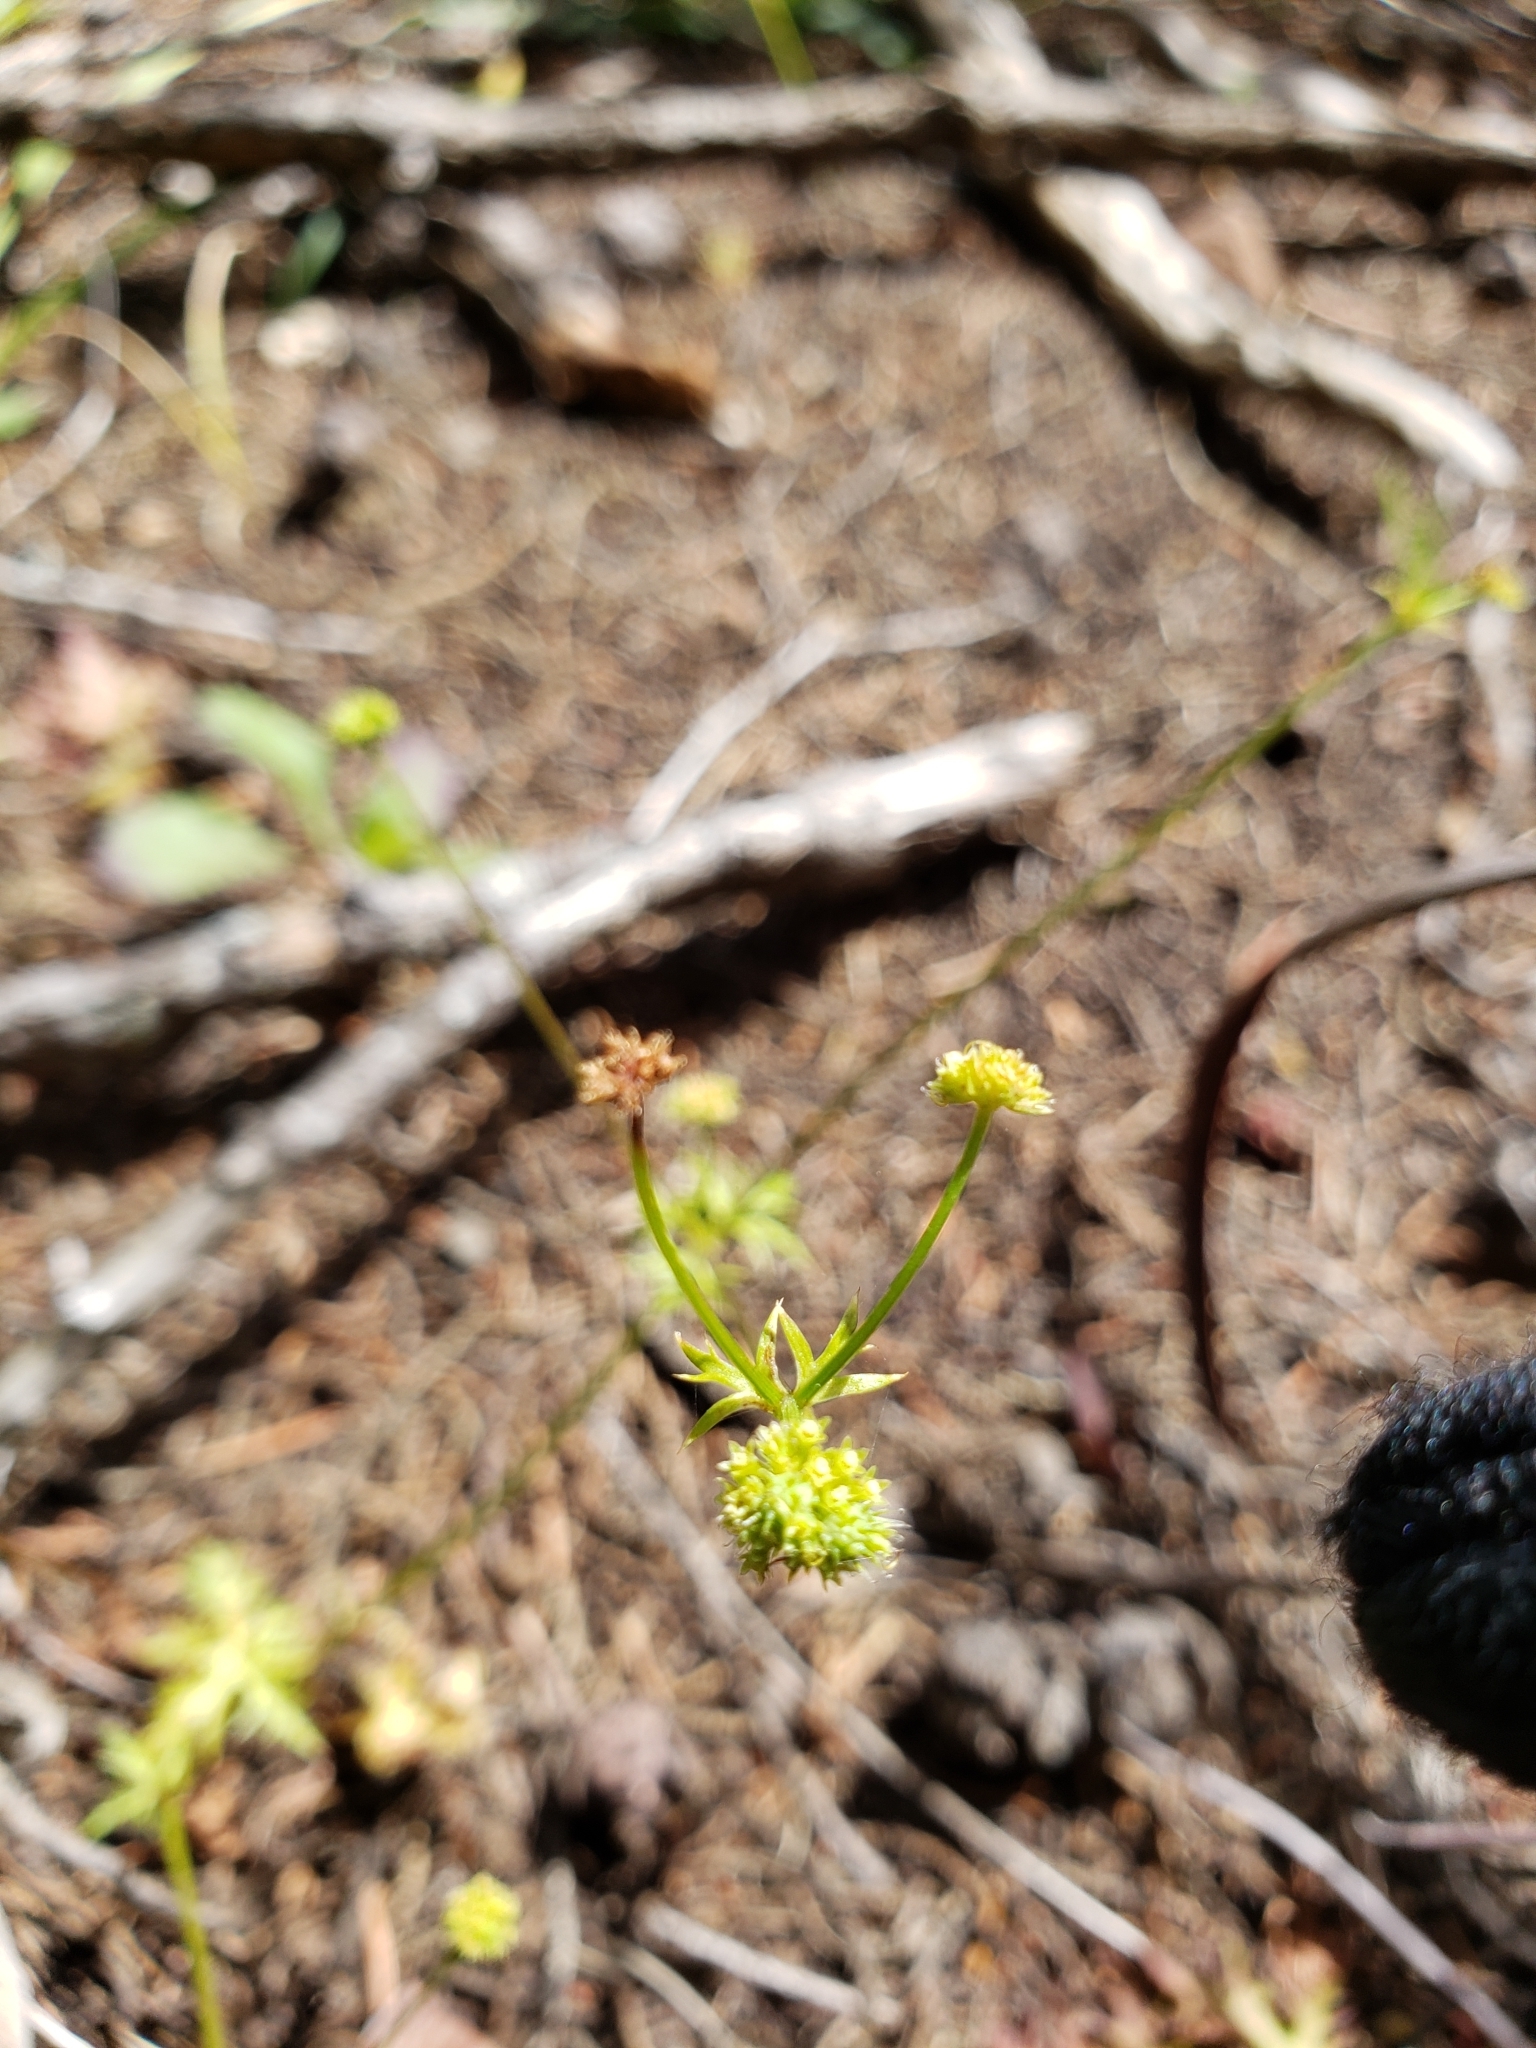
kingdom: Plantae
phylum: Tracheophyta
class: Magnoliopsida
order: Apiales
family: Apiaceae
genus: Sanicula
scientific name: Sanicula laciniata
